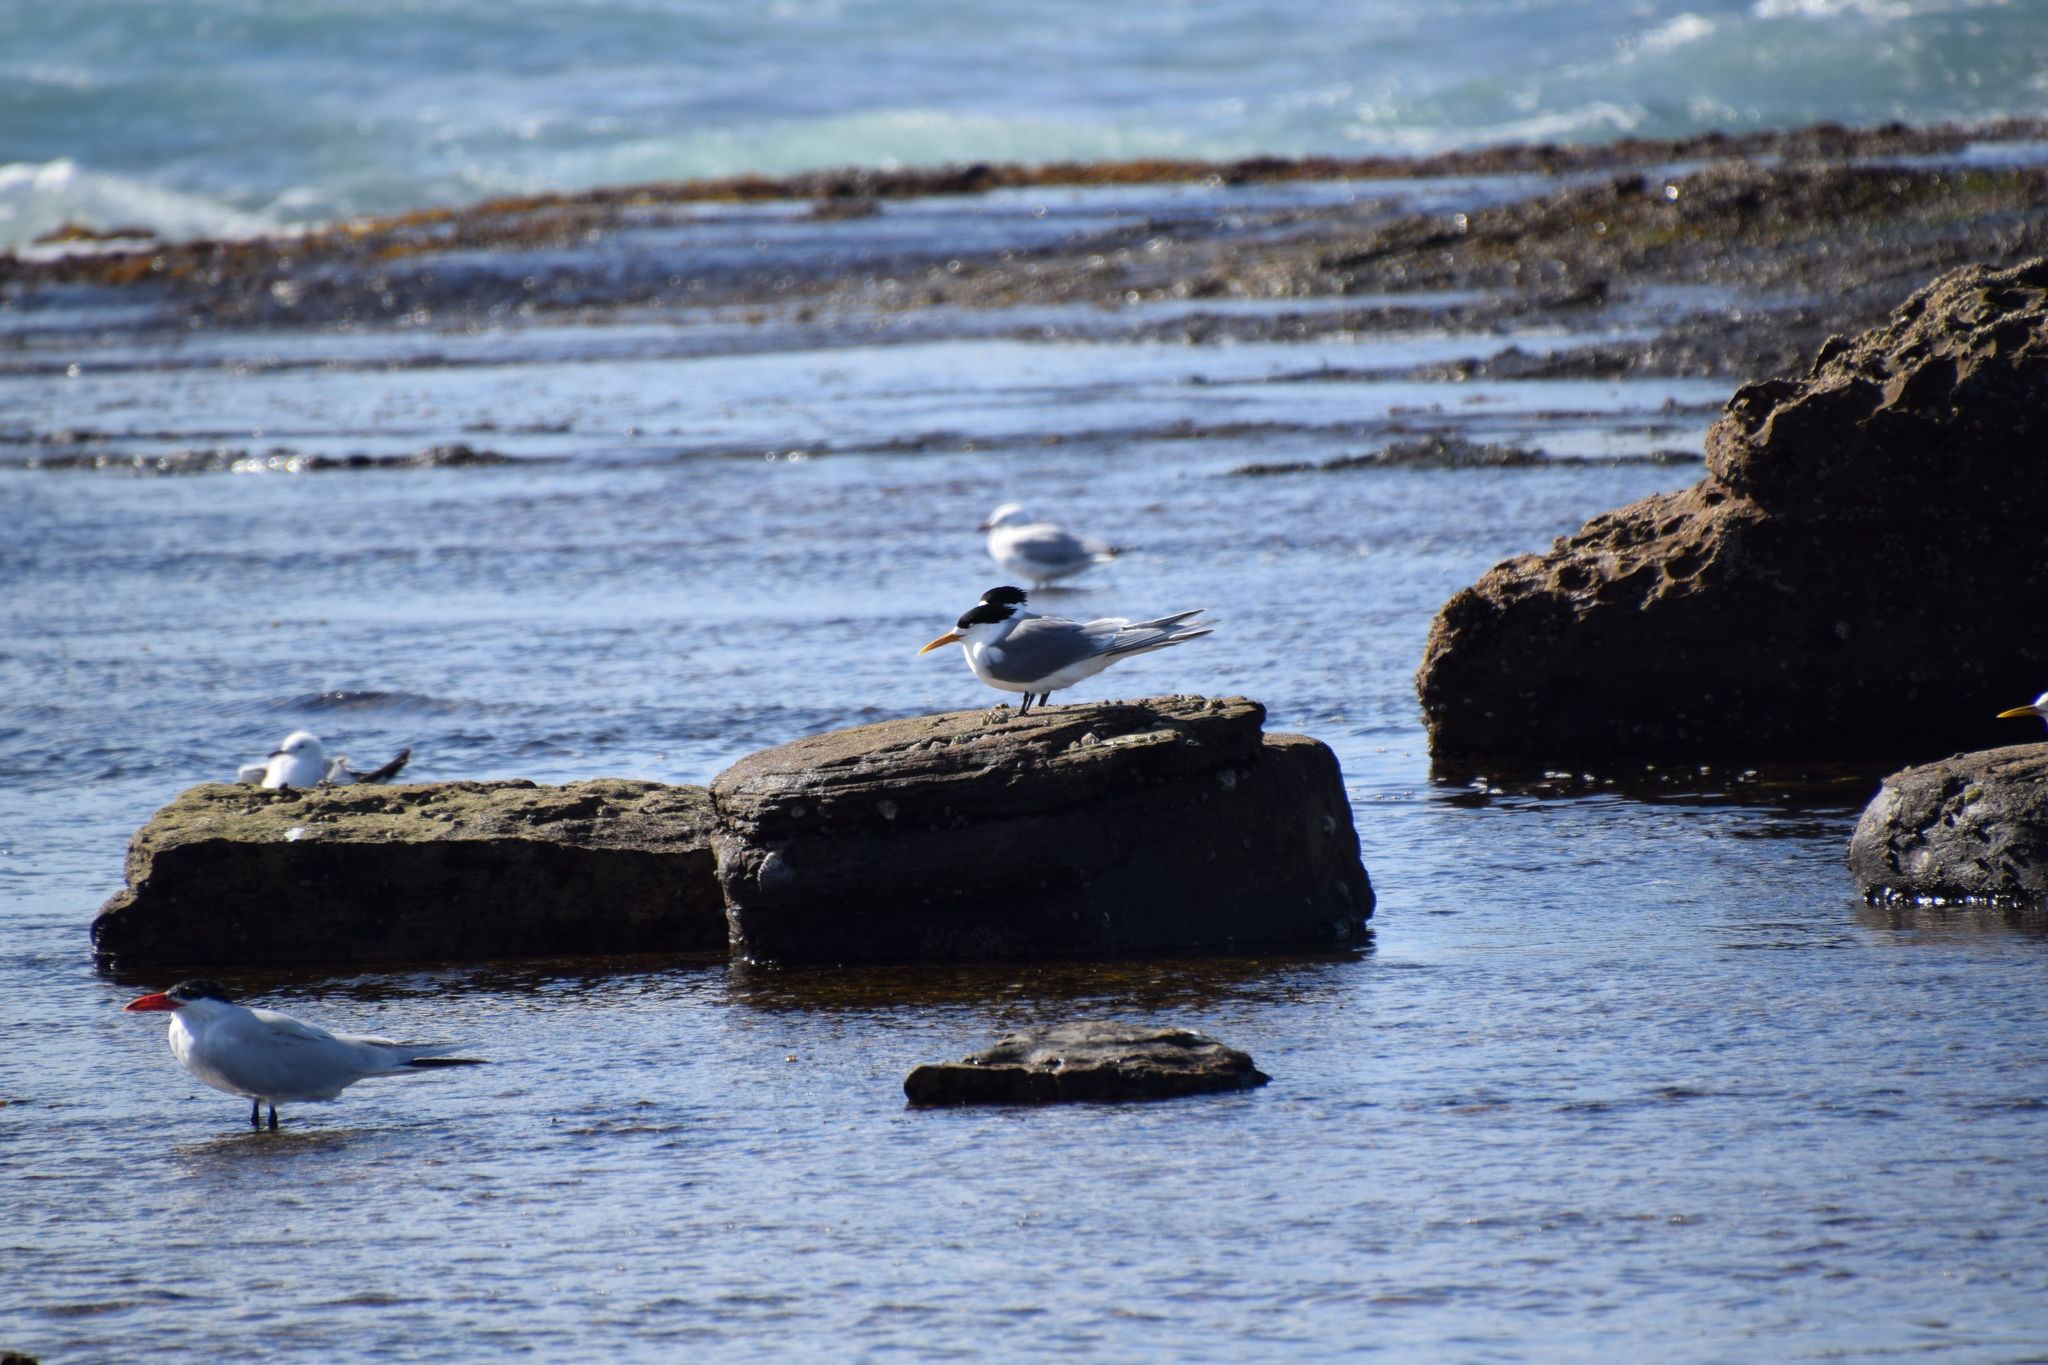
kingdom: Animalia
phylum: Chordata
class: Aves
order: Charadriiformes
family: Laridae
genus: Thalasseus
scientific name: Thalasseus bergii
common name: Greater crested tern
